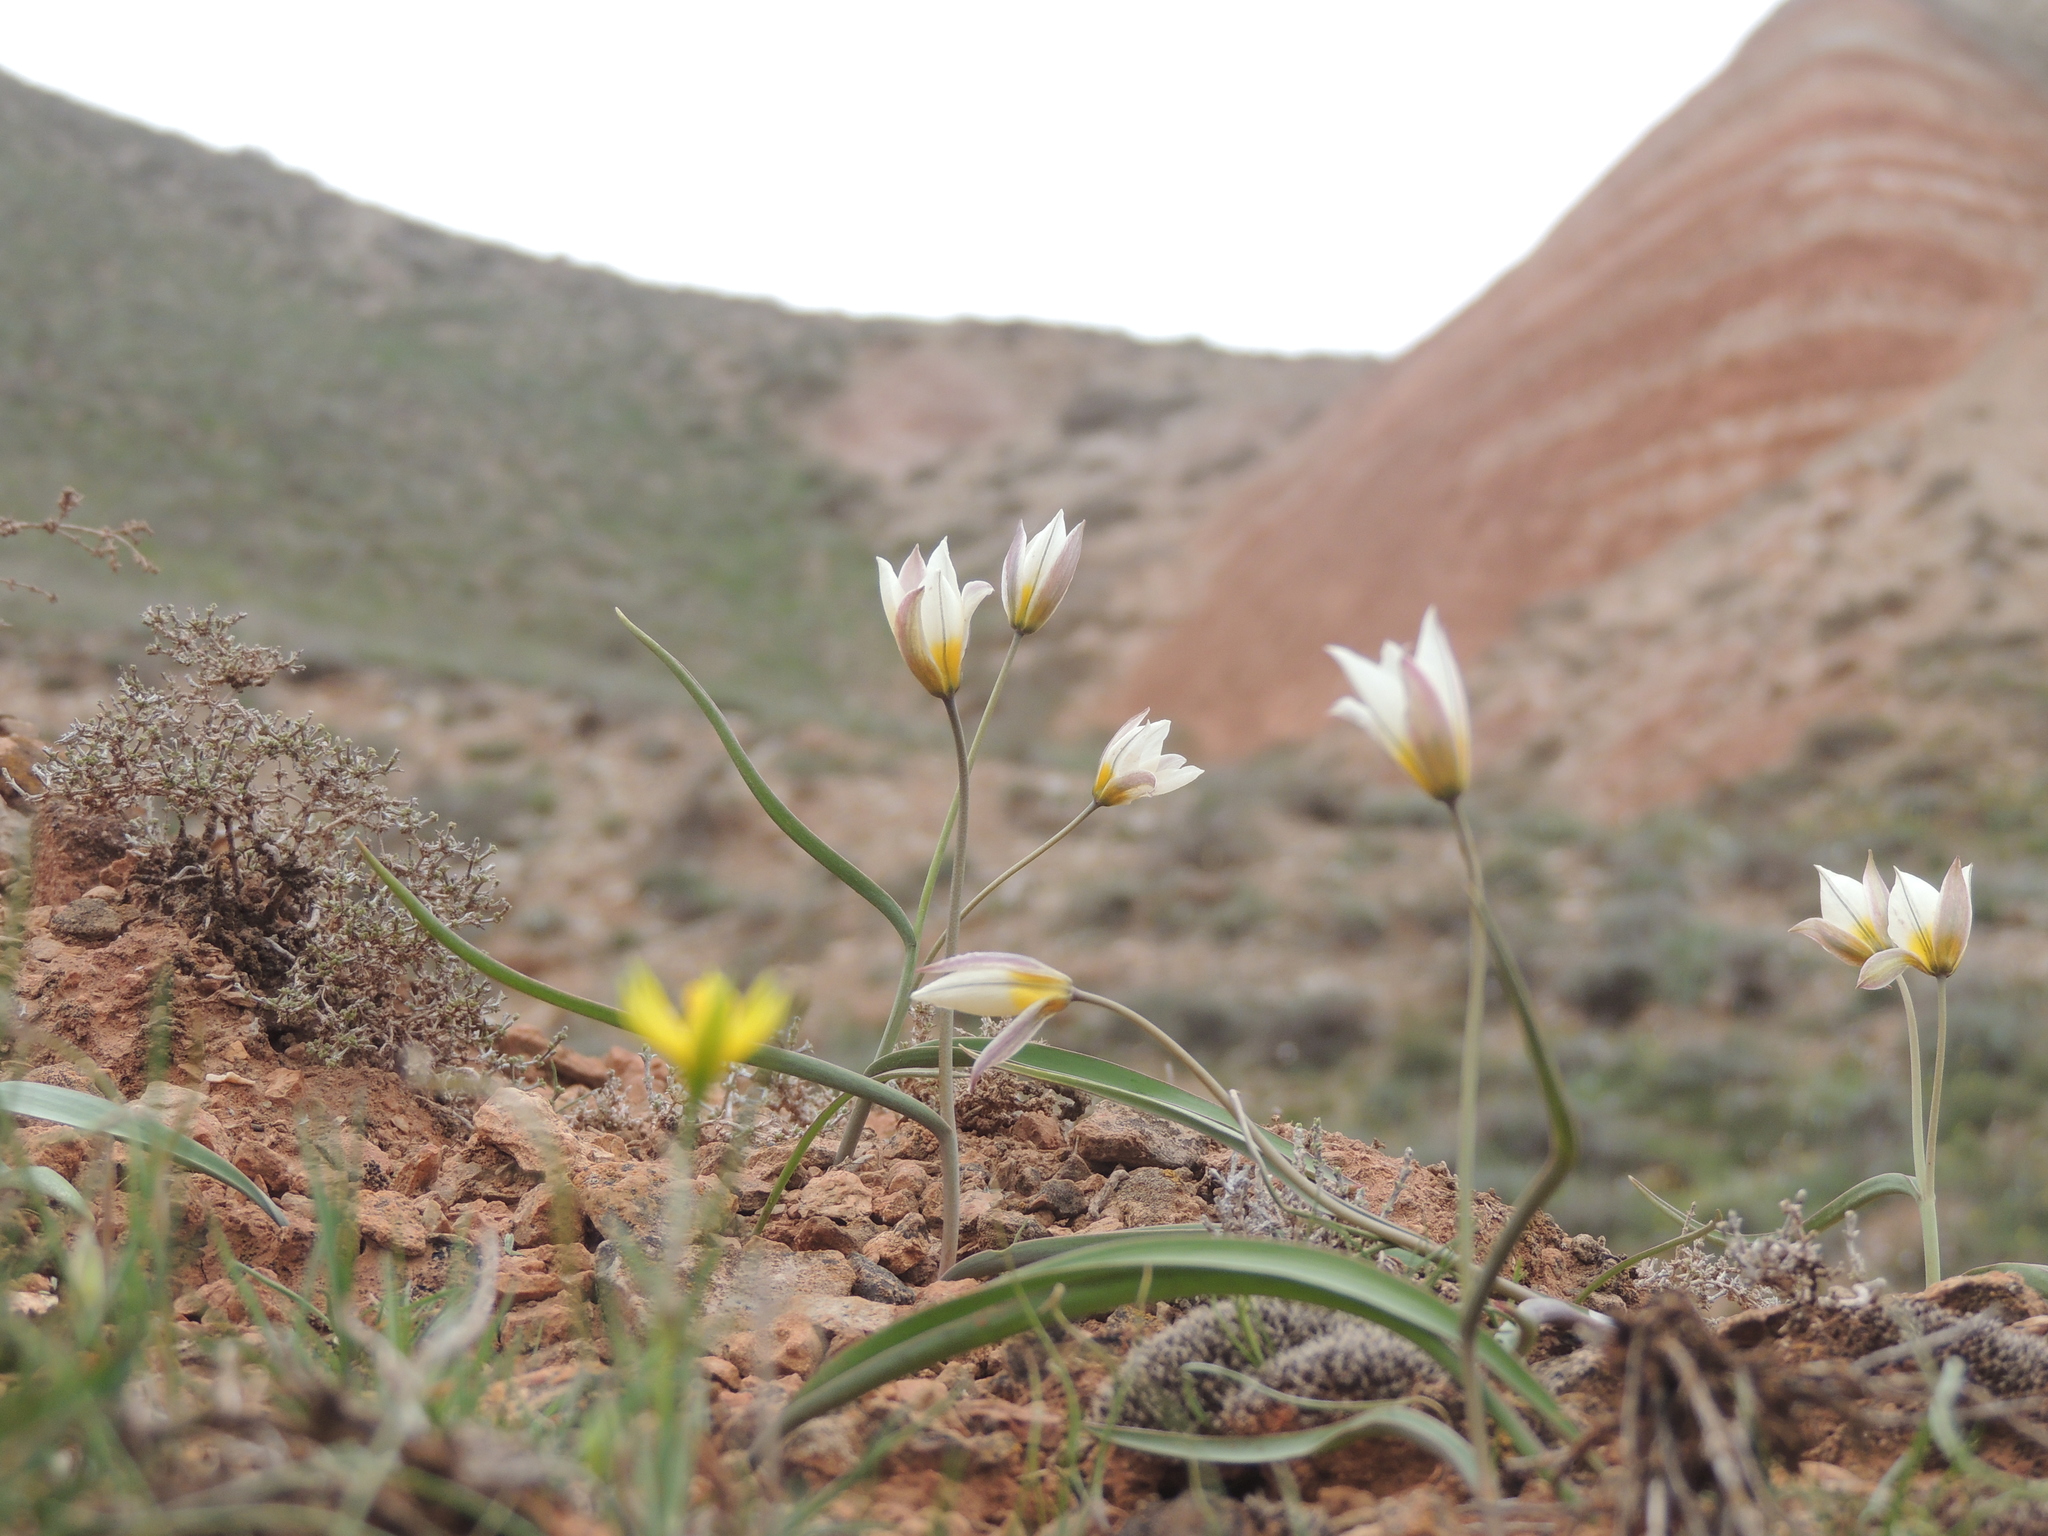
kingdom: Plantae
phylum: Tracheophyta
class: Liliopsida
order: Liliales
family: Liliaceae
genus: Tulipa
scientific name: Tulipa biflora
